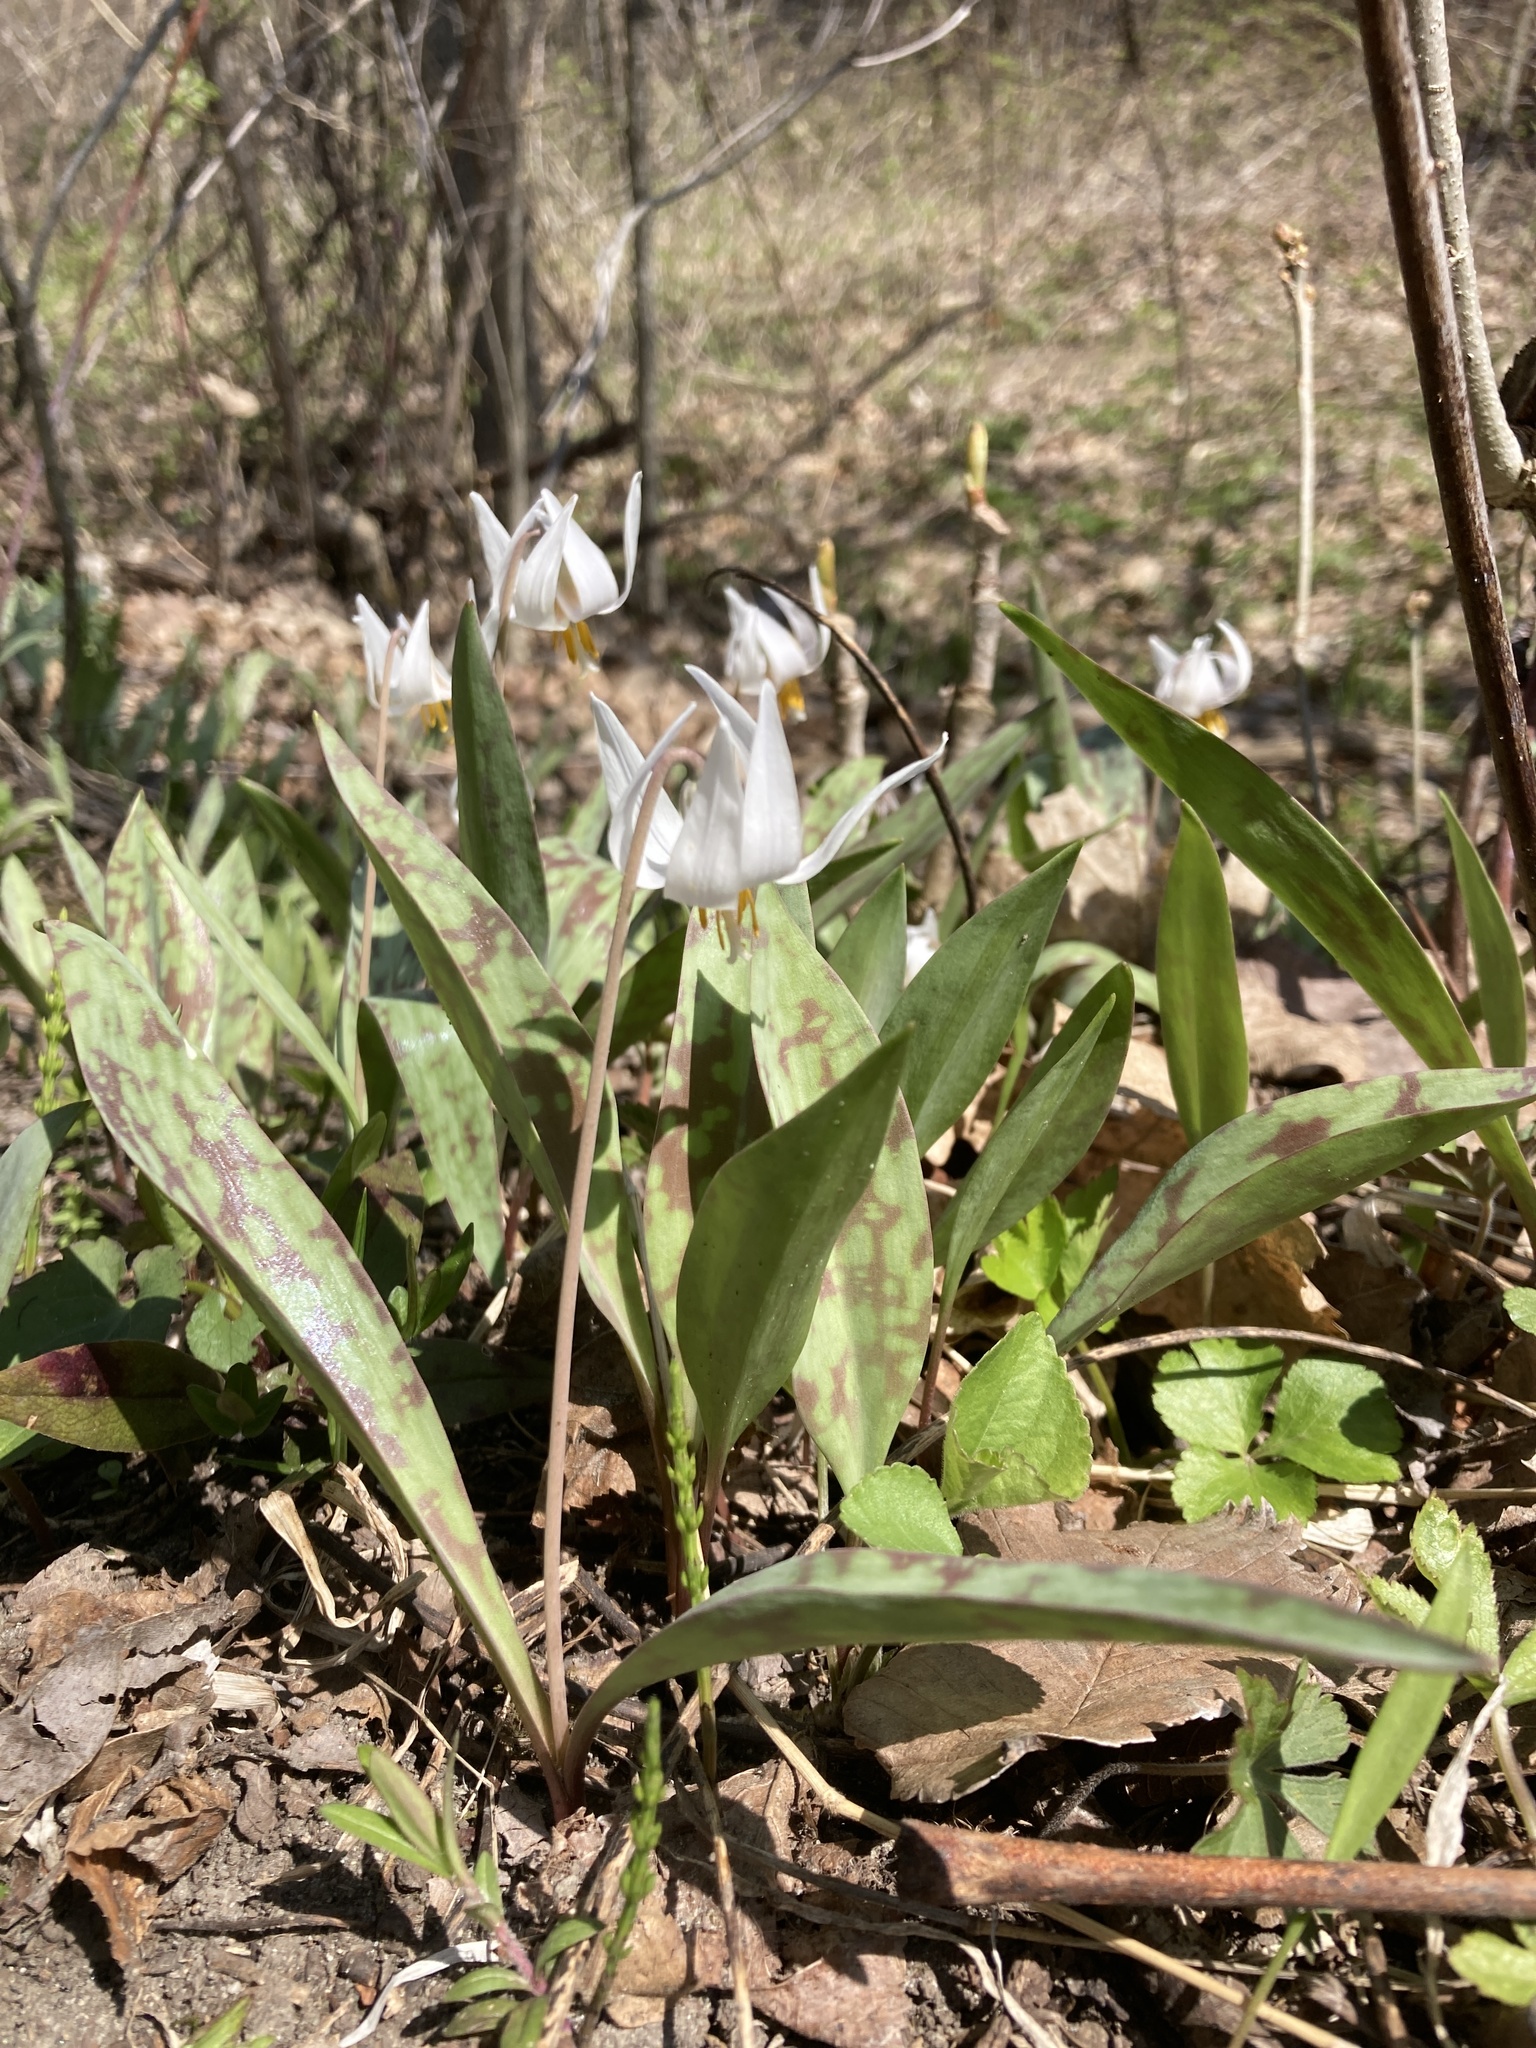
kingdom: Plantae
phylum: Tracheophyta
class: Liliopsida
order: Liliales
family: Liliaceae
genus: Erythronium
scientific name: Erythronium albidum
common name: White trout-lily
